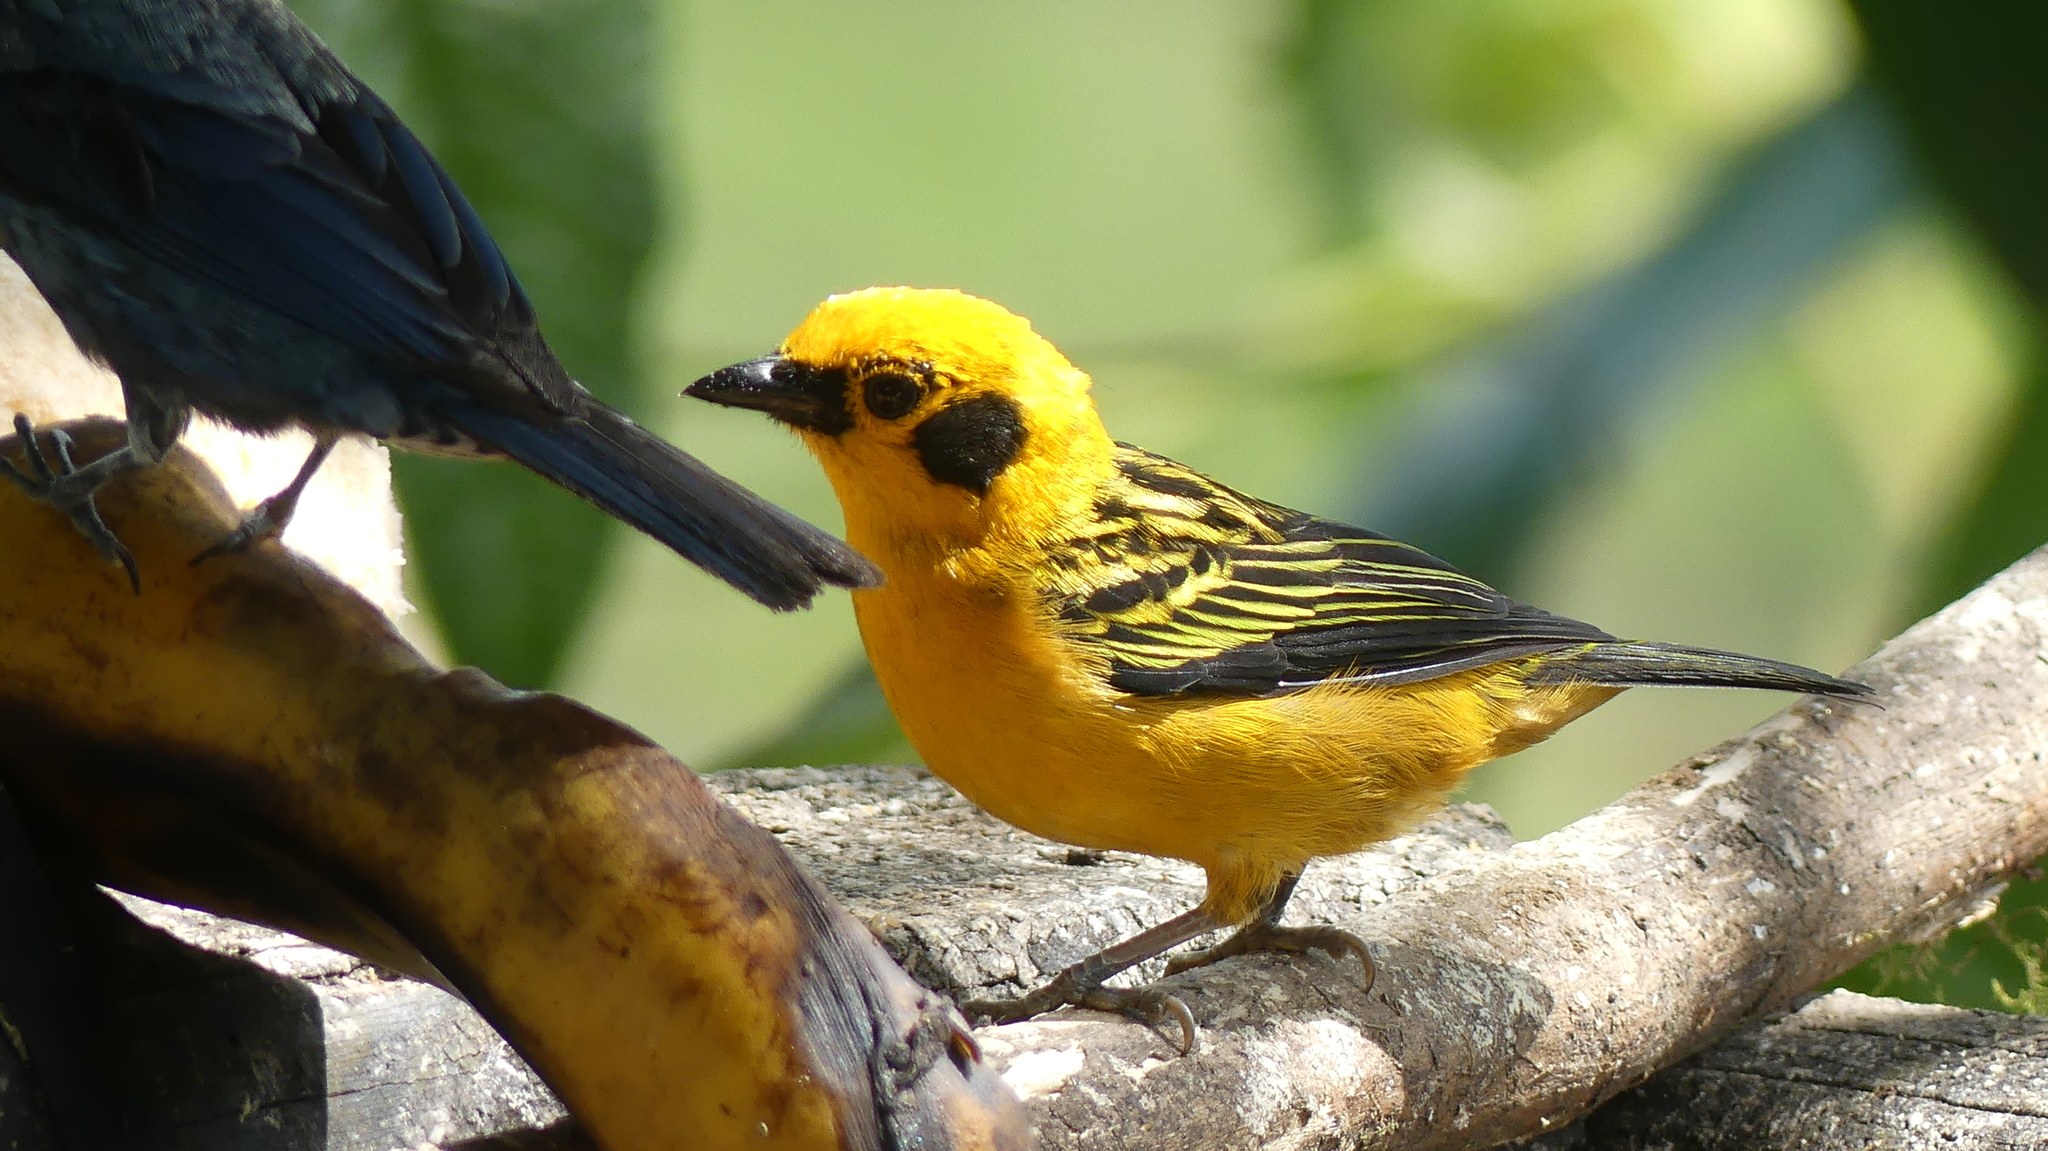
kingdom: Animalia
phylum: Chordata
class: Aves
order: Passeriformes
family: Thraupidae
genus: Tangara
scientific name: Tangara arthus
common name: Golden tanager
